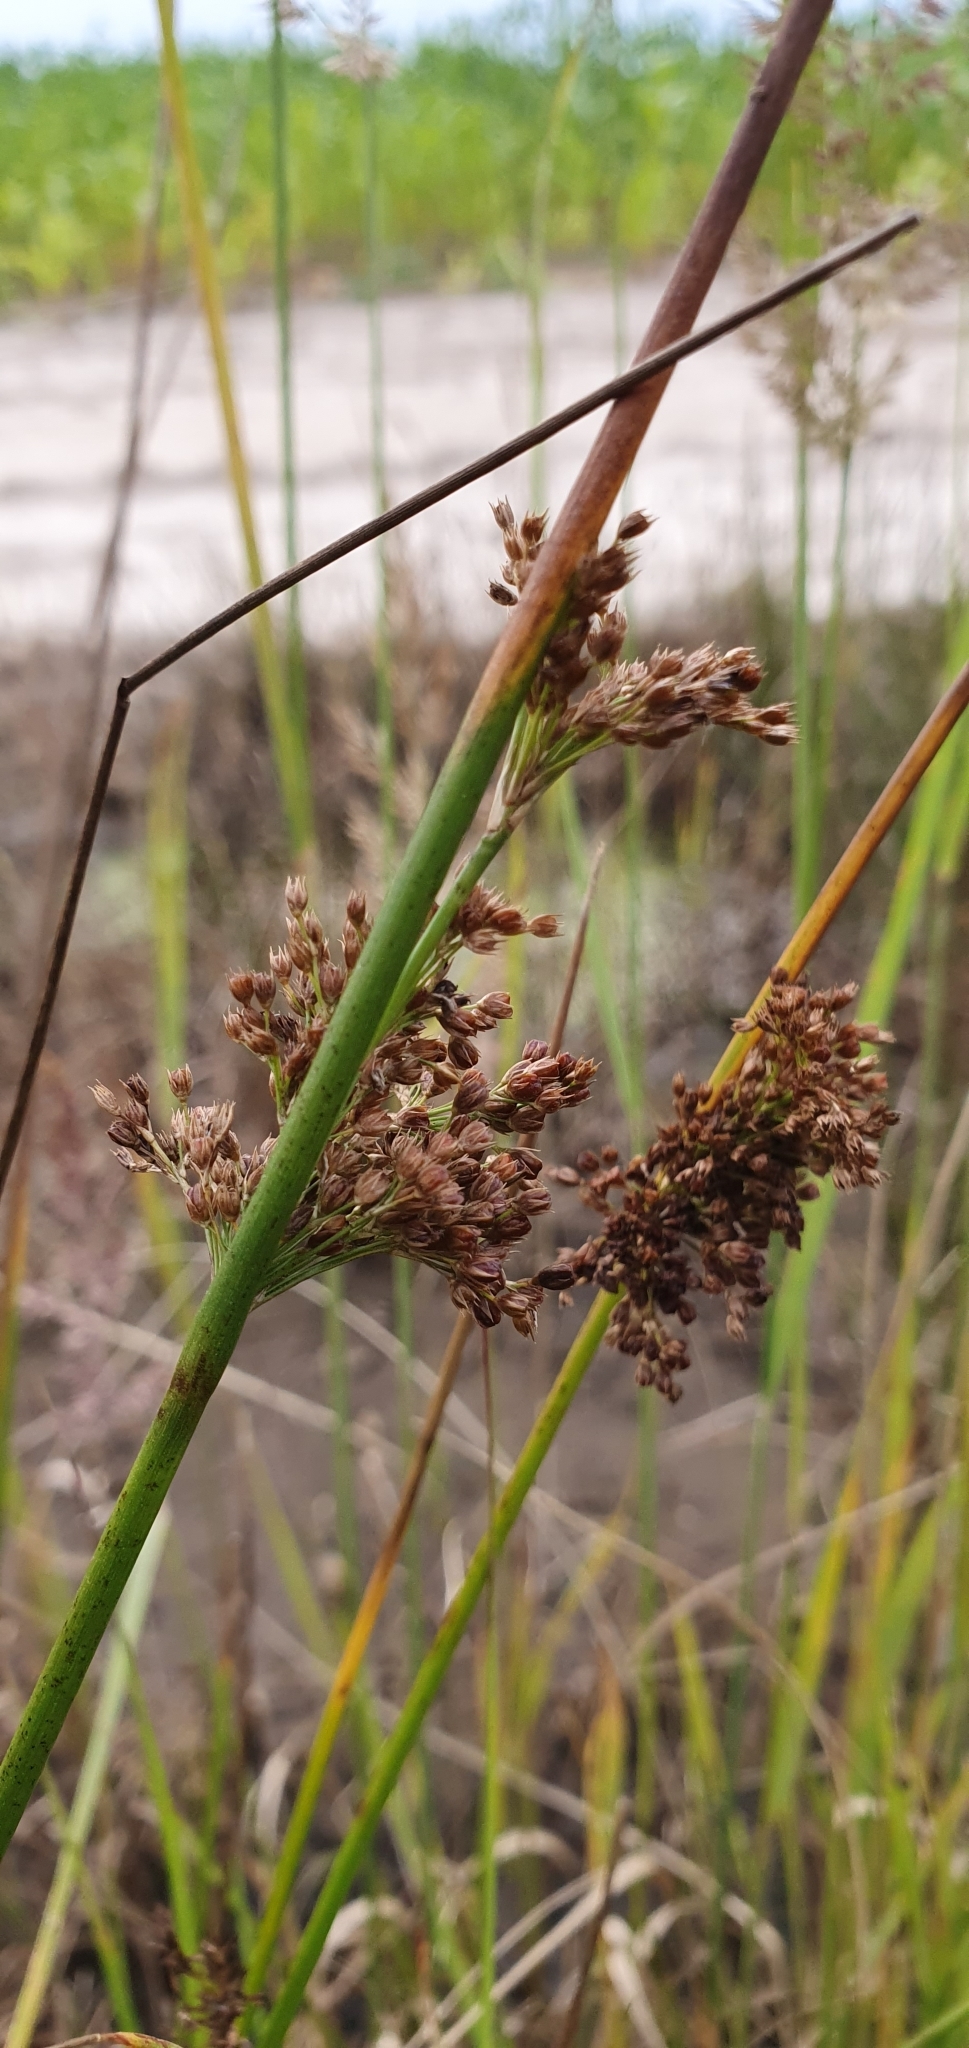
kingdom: Plantae
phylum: Tracheophyta
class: Liliopsida
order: Poales
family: Juncaceae
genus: Juncus
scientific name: Juncus effusus
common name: Soft rush
